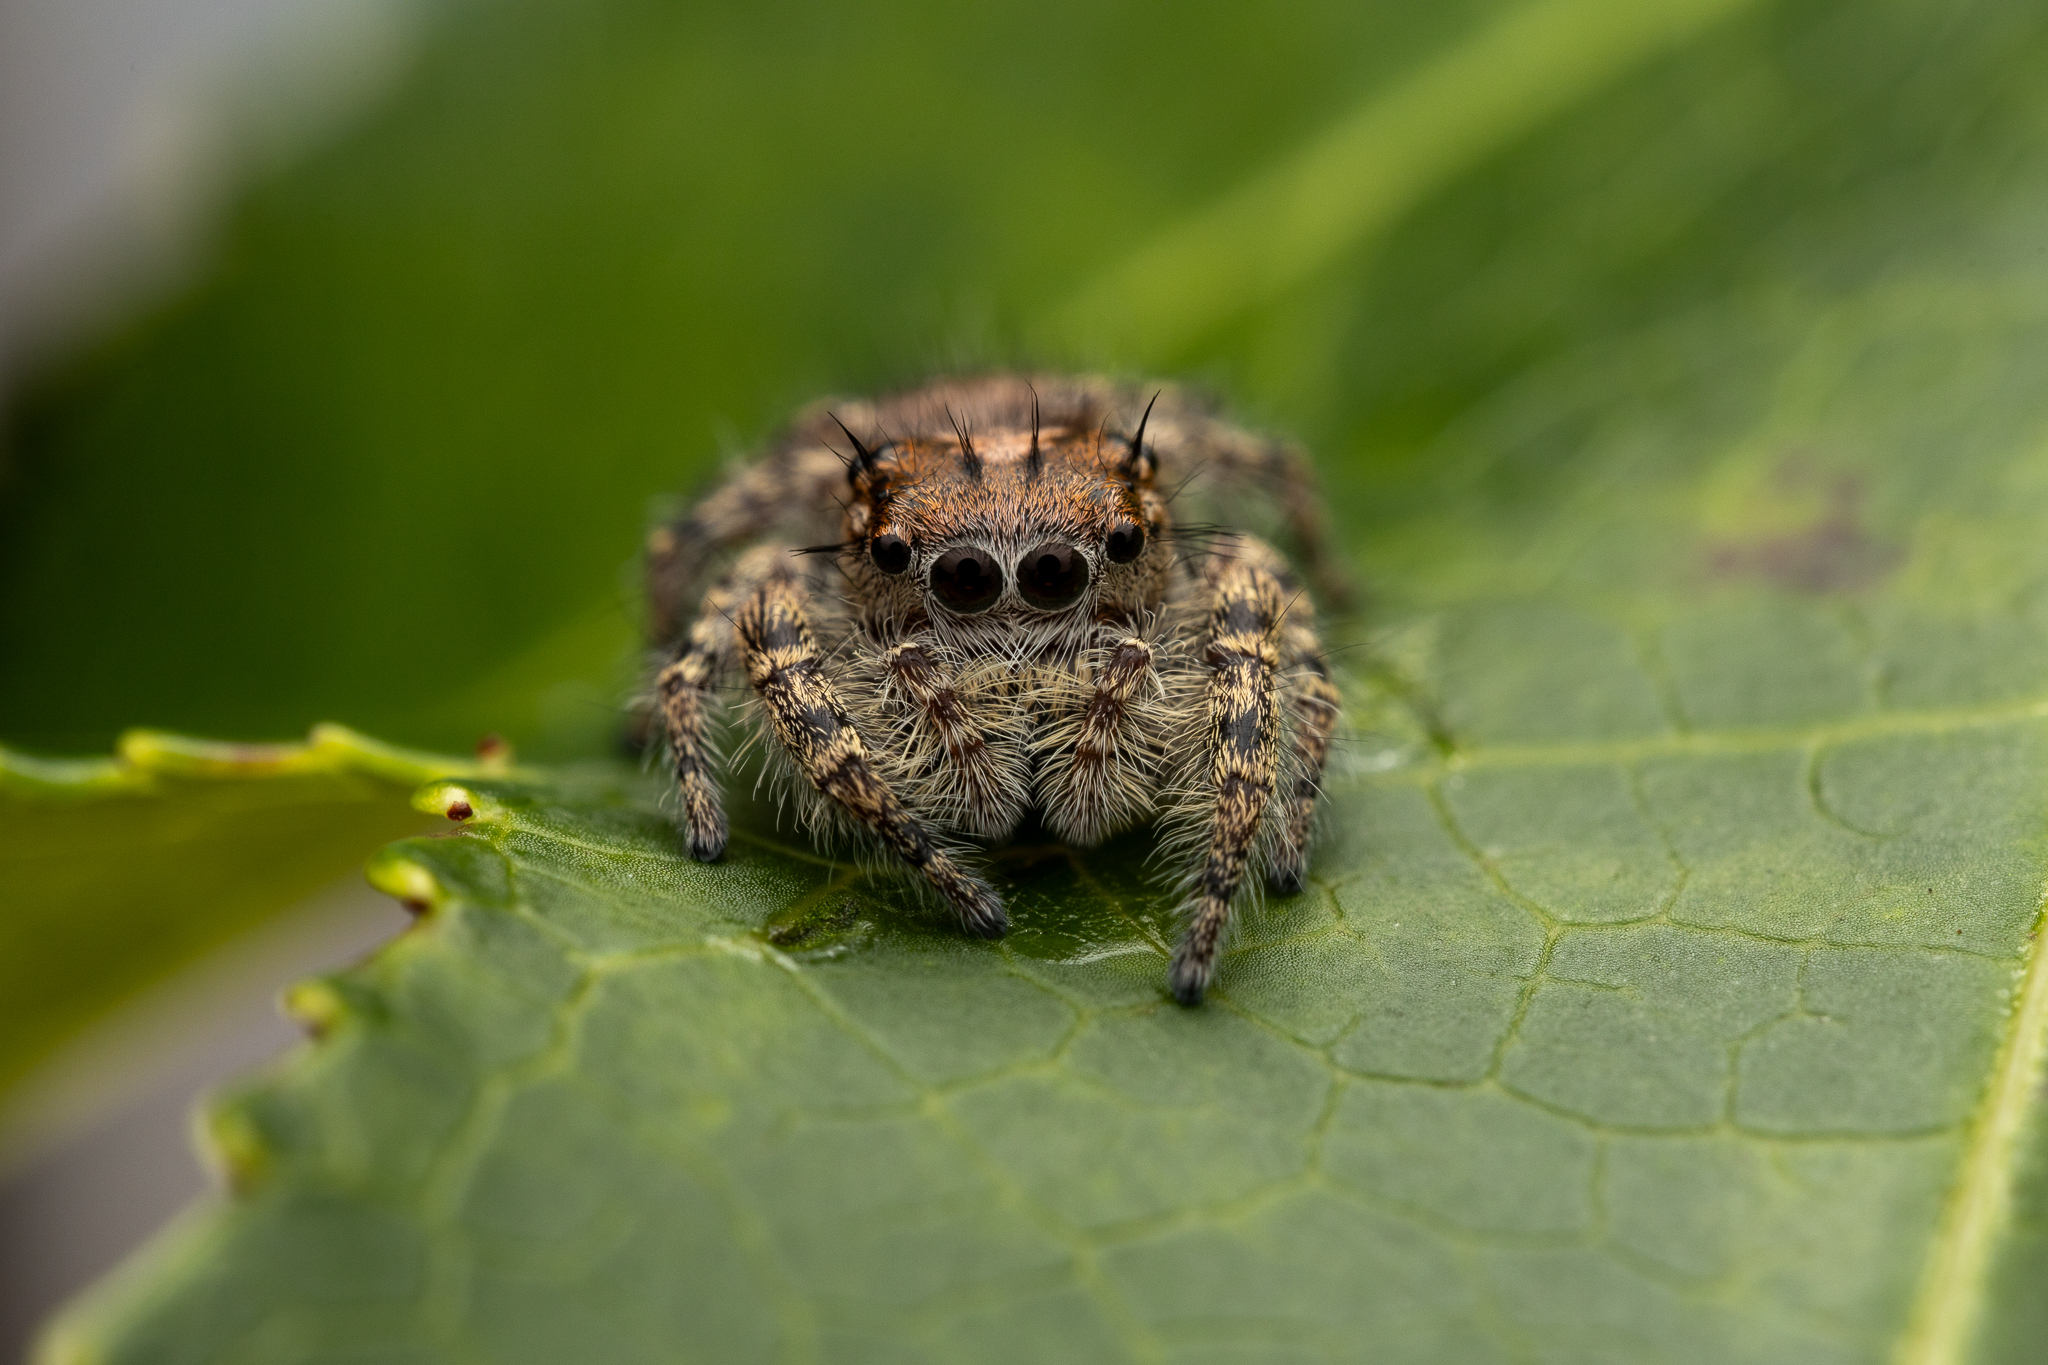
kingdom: Animalia
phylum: Arthropoda
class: Arachnida
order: Araneae
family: Salticidae
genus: Phidippus
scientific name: Phidippus putnami
